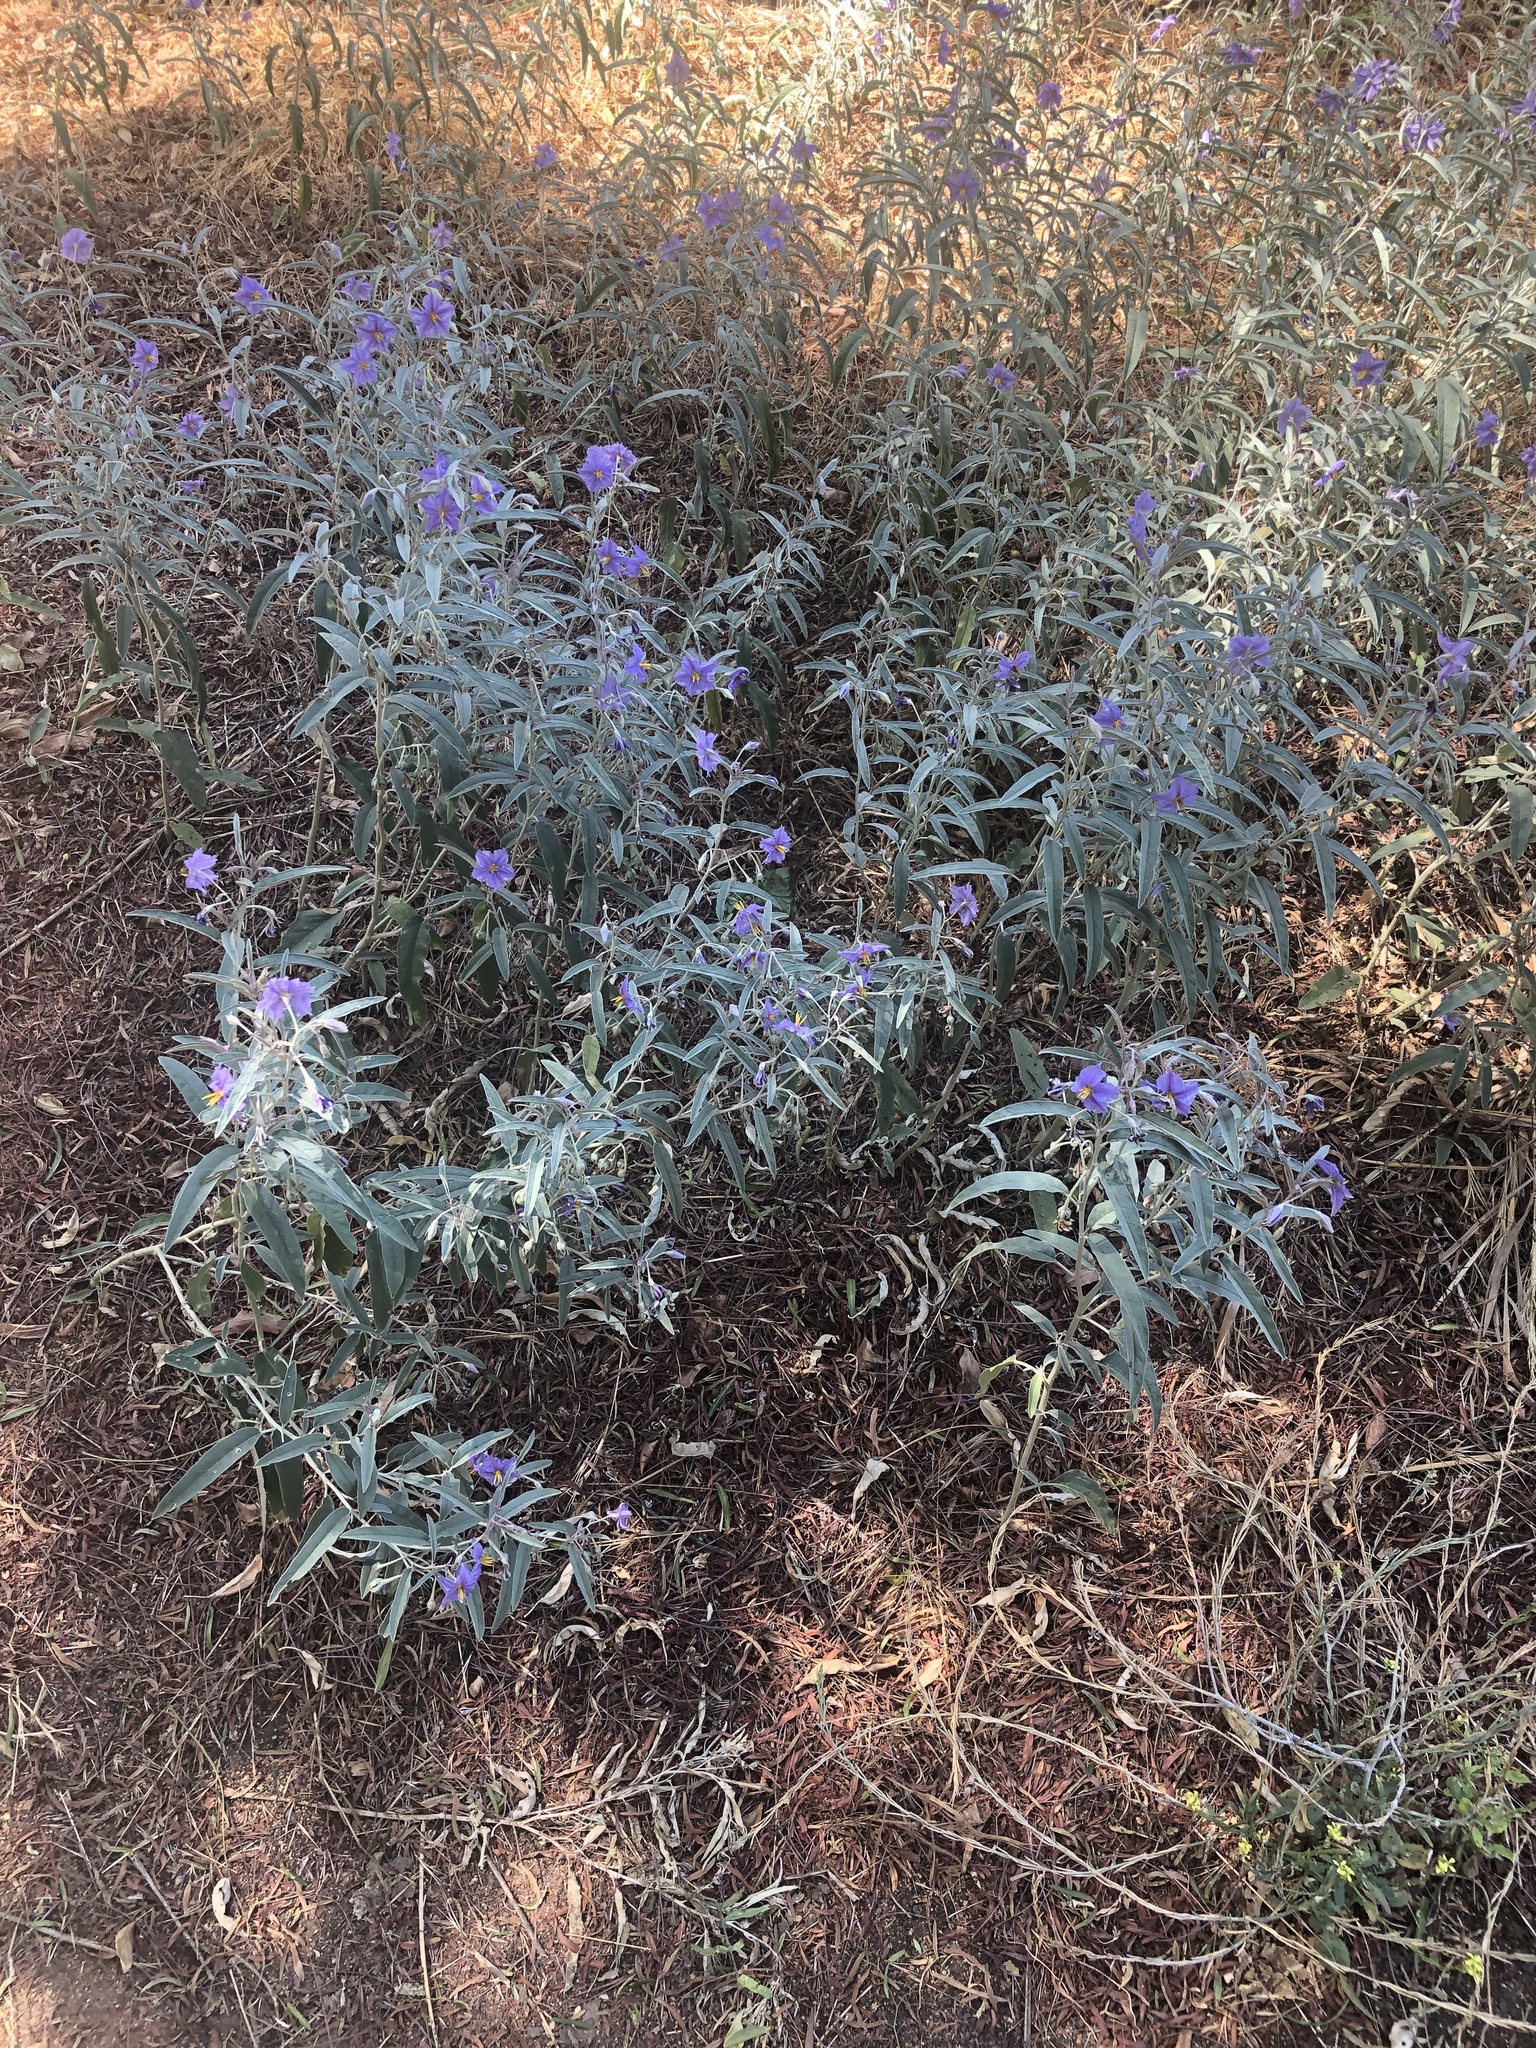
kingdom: Plantae
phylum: Tracheophyta
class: Magnoliopsida
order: Solanales
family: Solanaceae
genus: Solanum
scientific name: Solanum elaeagnifolium
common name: Silverleaf nightshade
